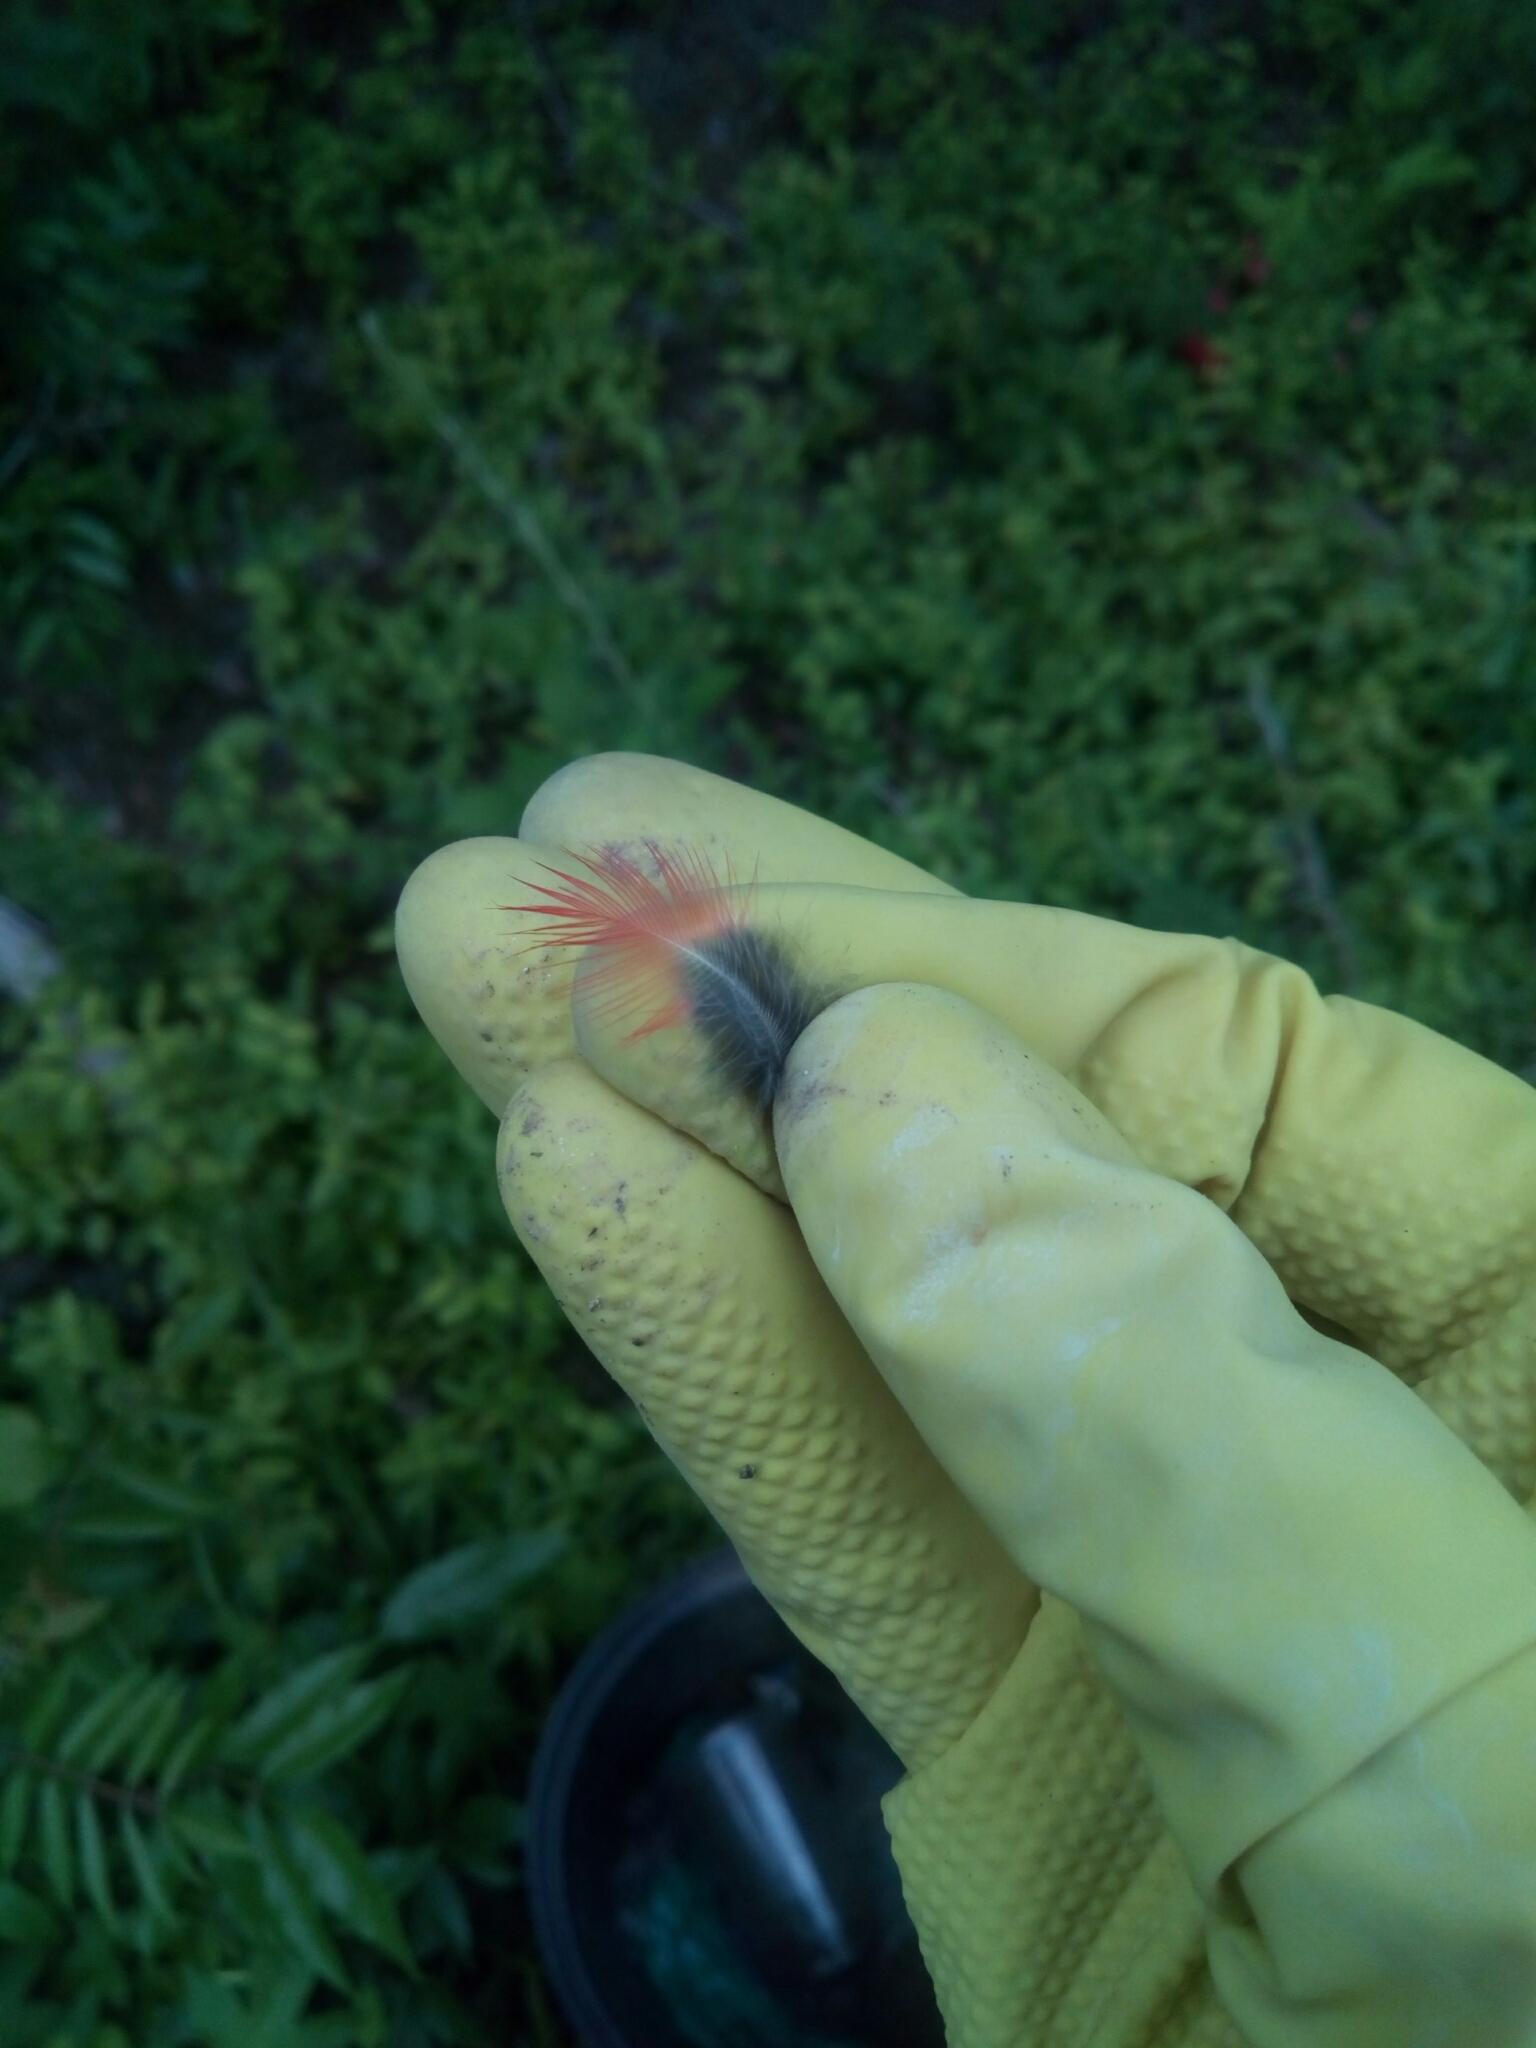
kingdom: Animalia
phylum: Chordata
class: Aves
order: Passeriformes
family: Cardinalidae
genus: Cardinalis
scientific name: Cardinalis cardinalis
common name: Northern cardinal
